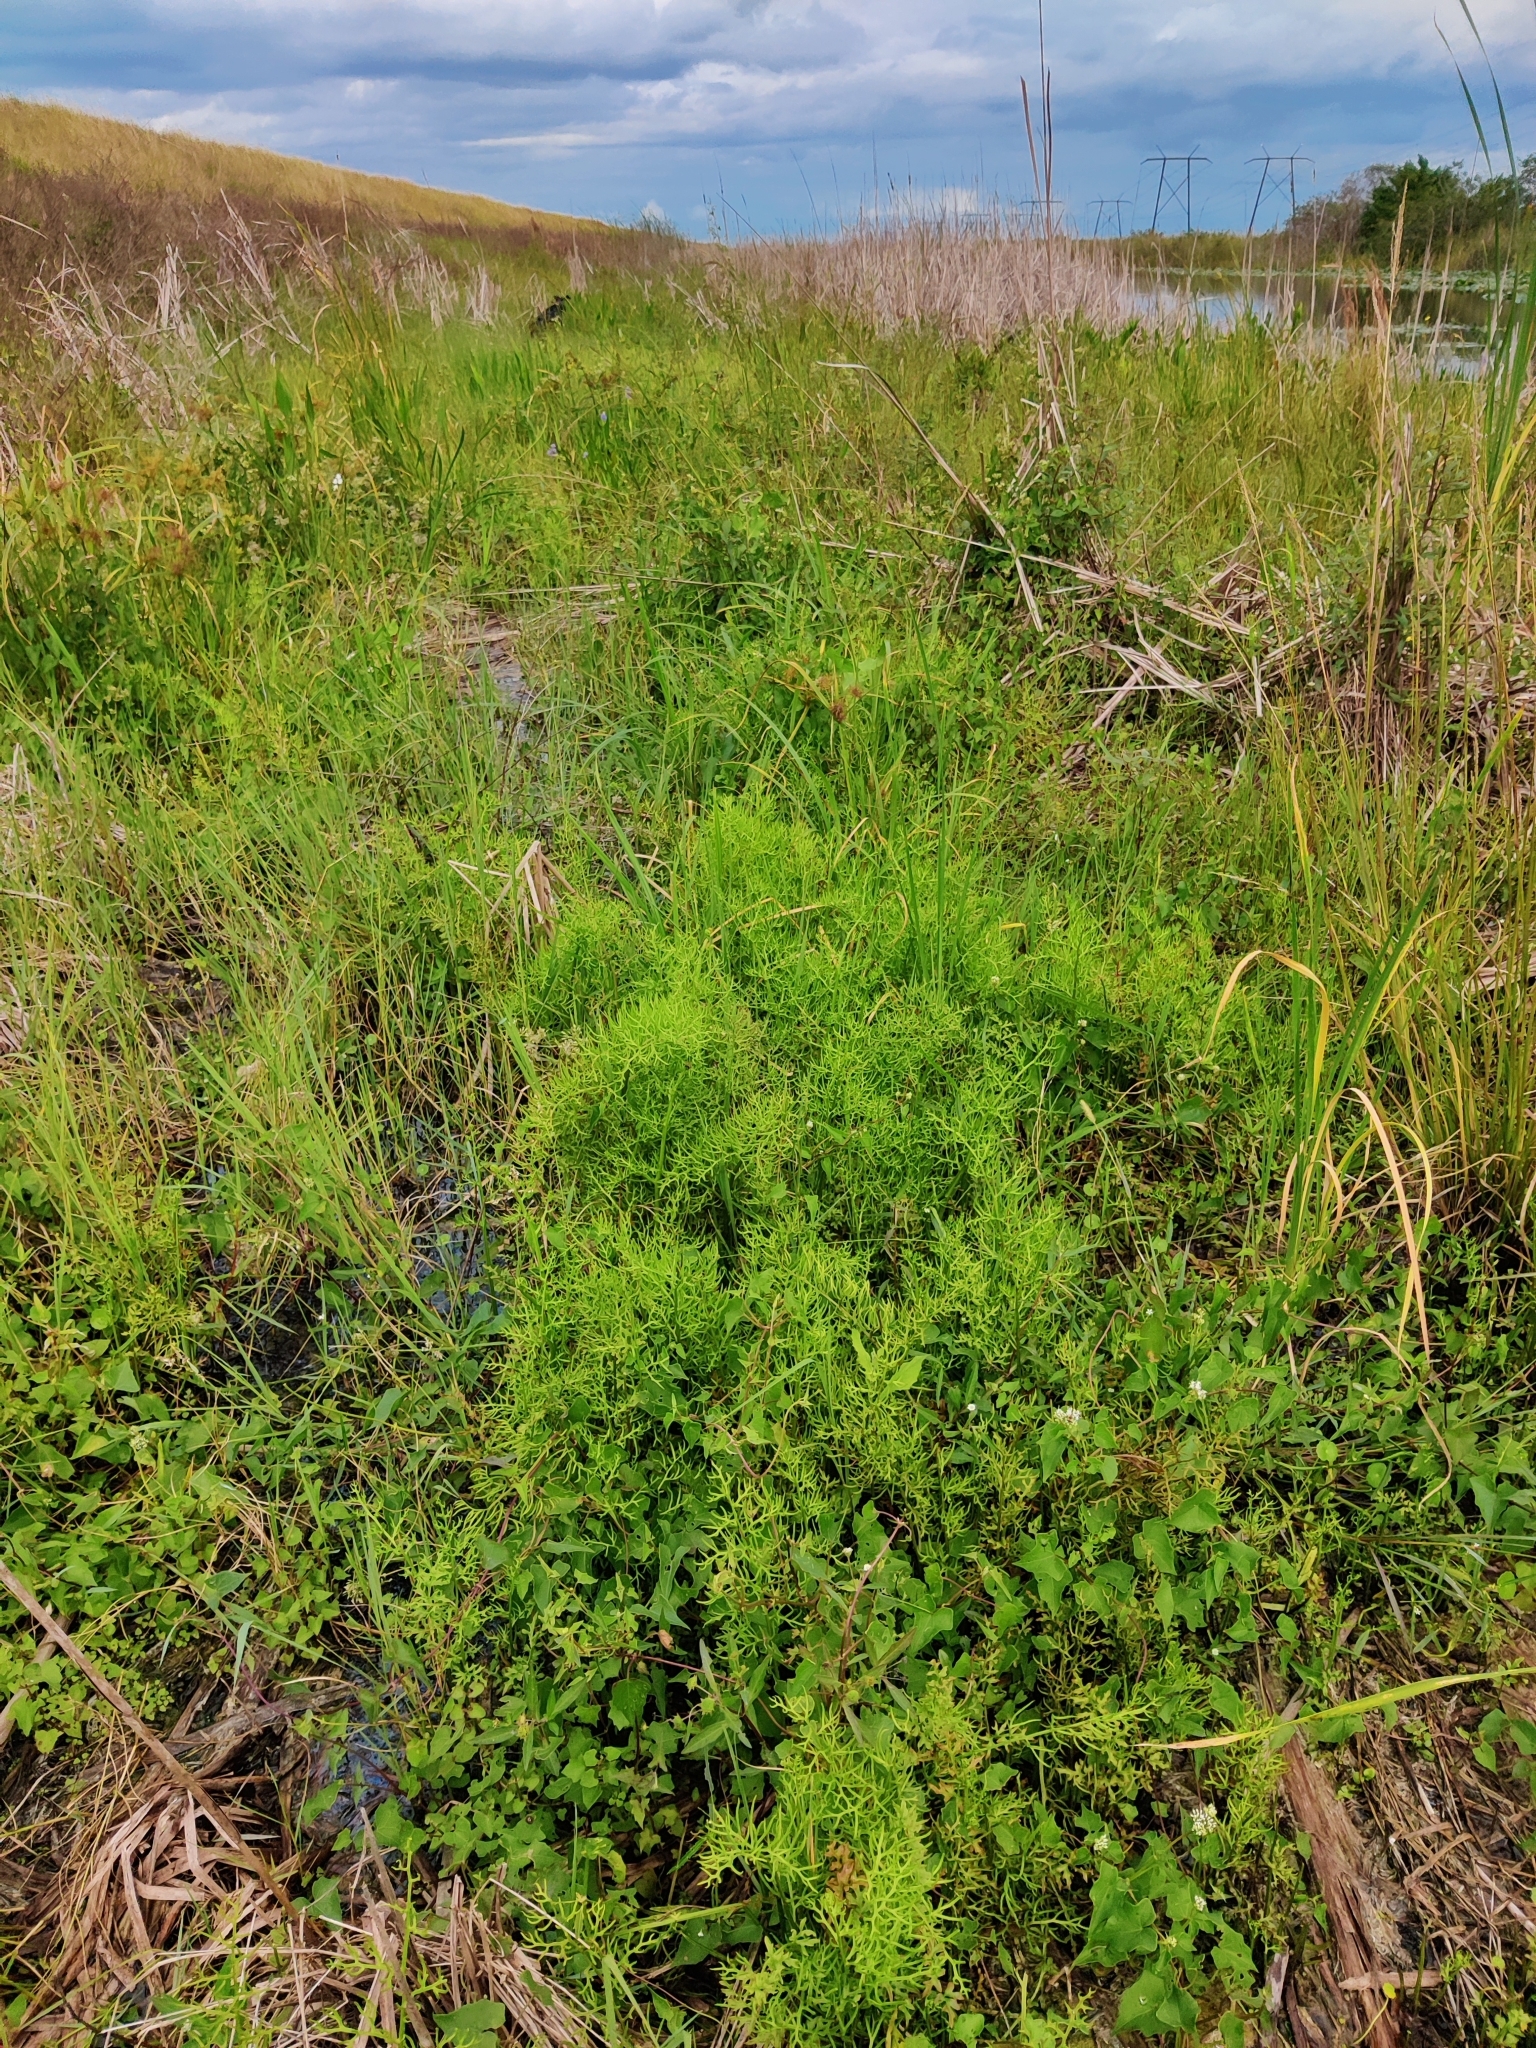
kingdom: Plantae
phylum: Tracheophyta
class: Liliopsida
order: Poales
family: Cyperaceae
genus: Fuirena
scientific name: Fuirena umbellata
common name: Yefen
